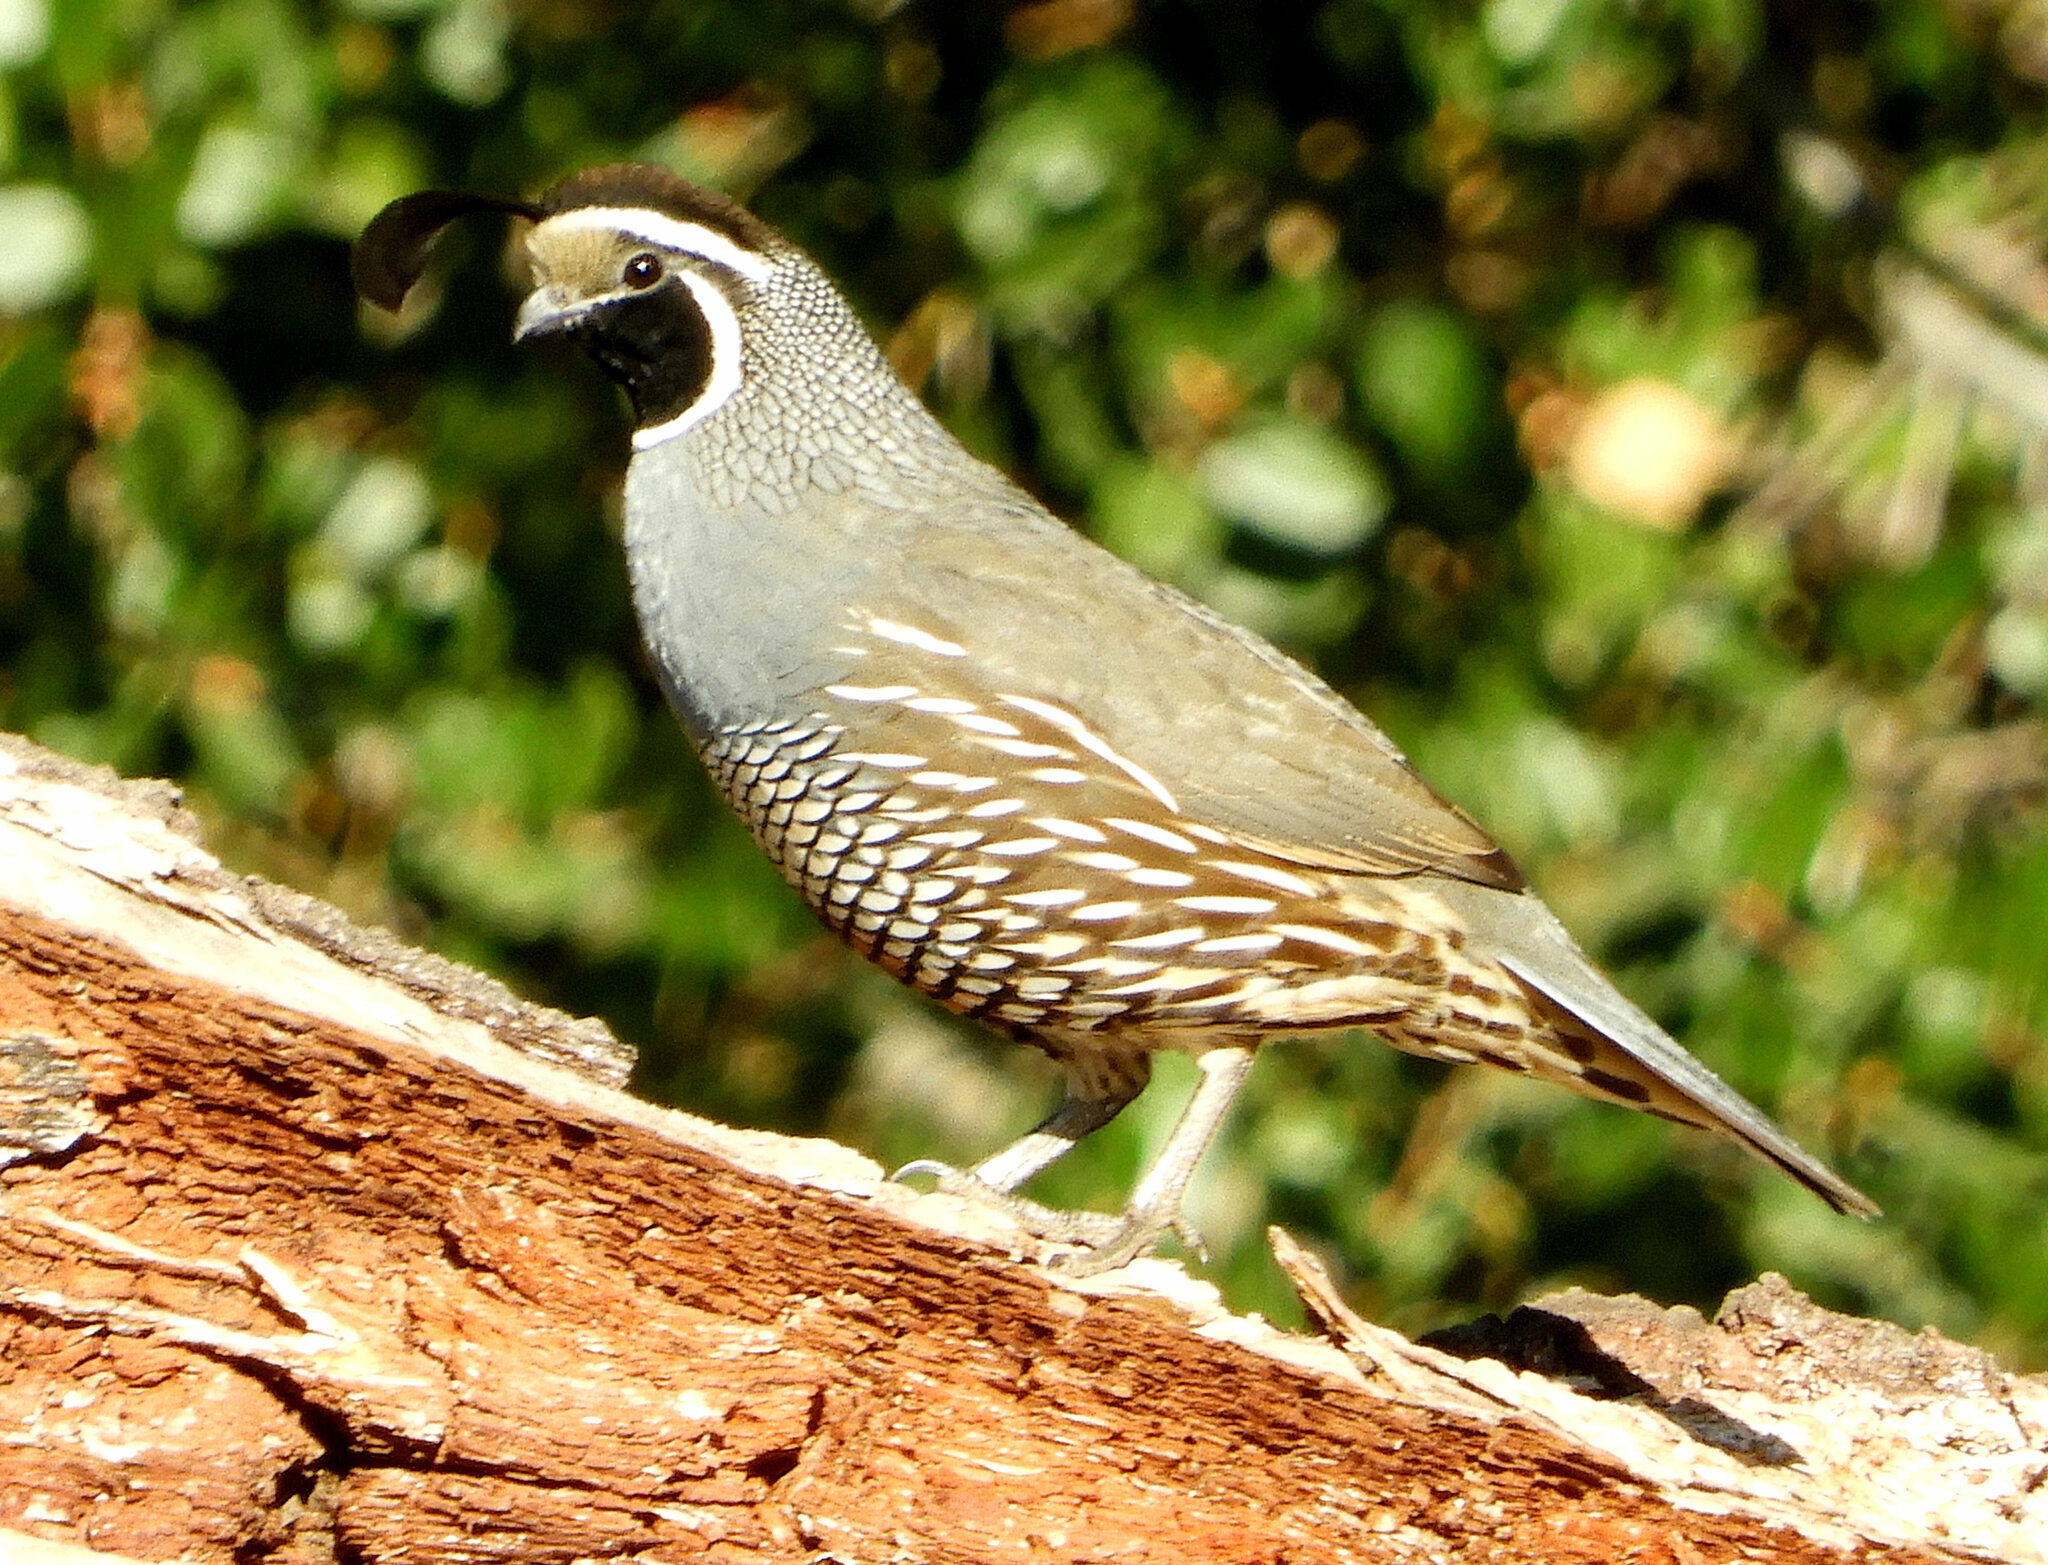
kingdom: Animalia
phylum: Chordata
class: Aves
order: Galliformes
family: Odontophoridae
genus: Callipepla
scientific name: Callipepla californica
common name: California quail
